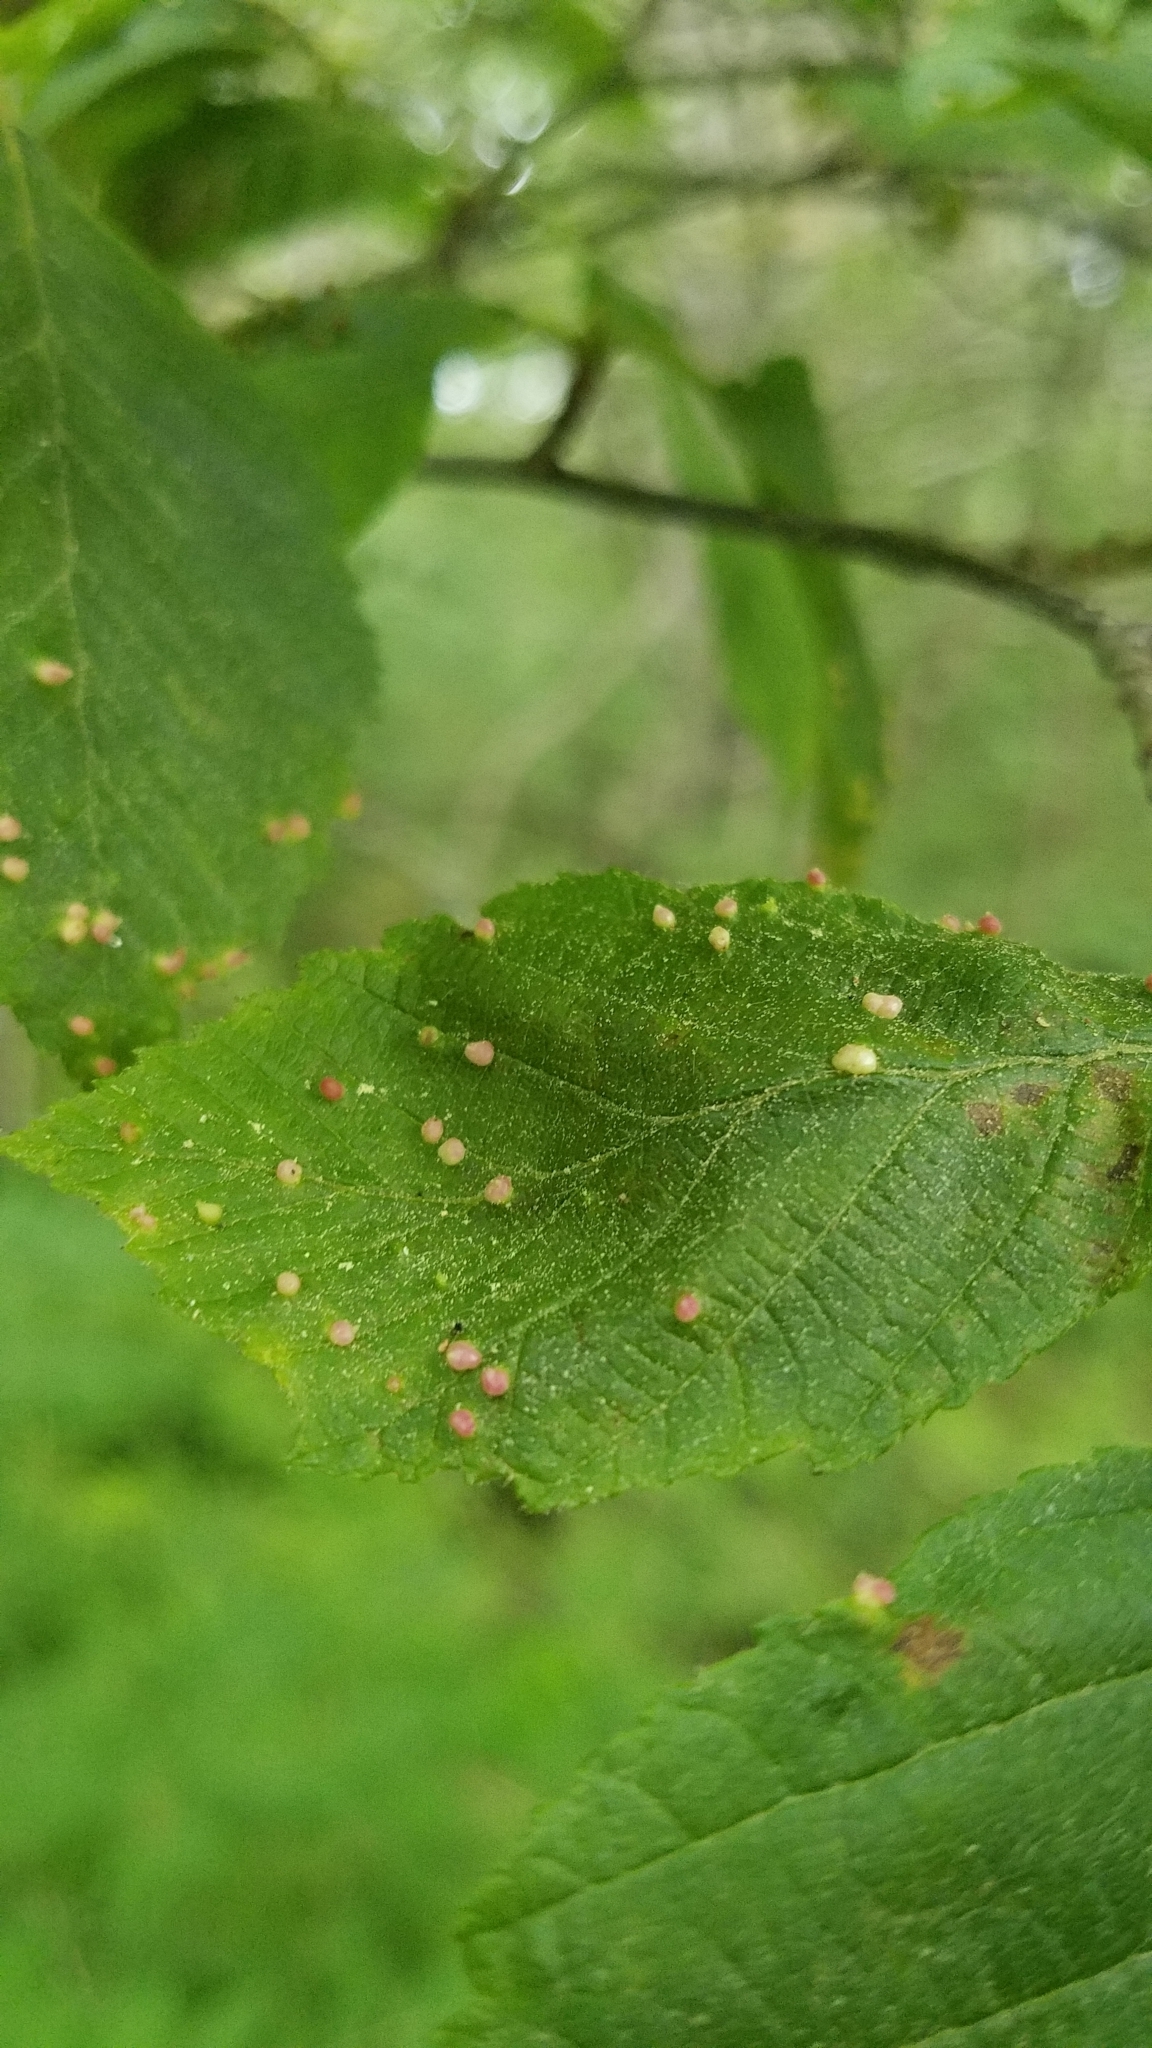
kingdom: Animalia
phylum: Arthropoda
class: Arachnida
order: Trombidiformes
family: Eriophyidae
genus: Eriophyes
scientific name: Eriophyes laevis
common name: Alder leaf gall mite
